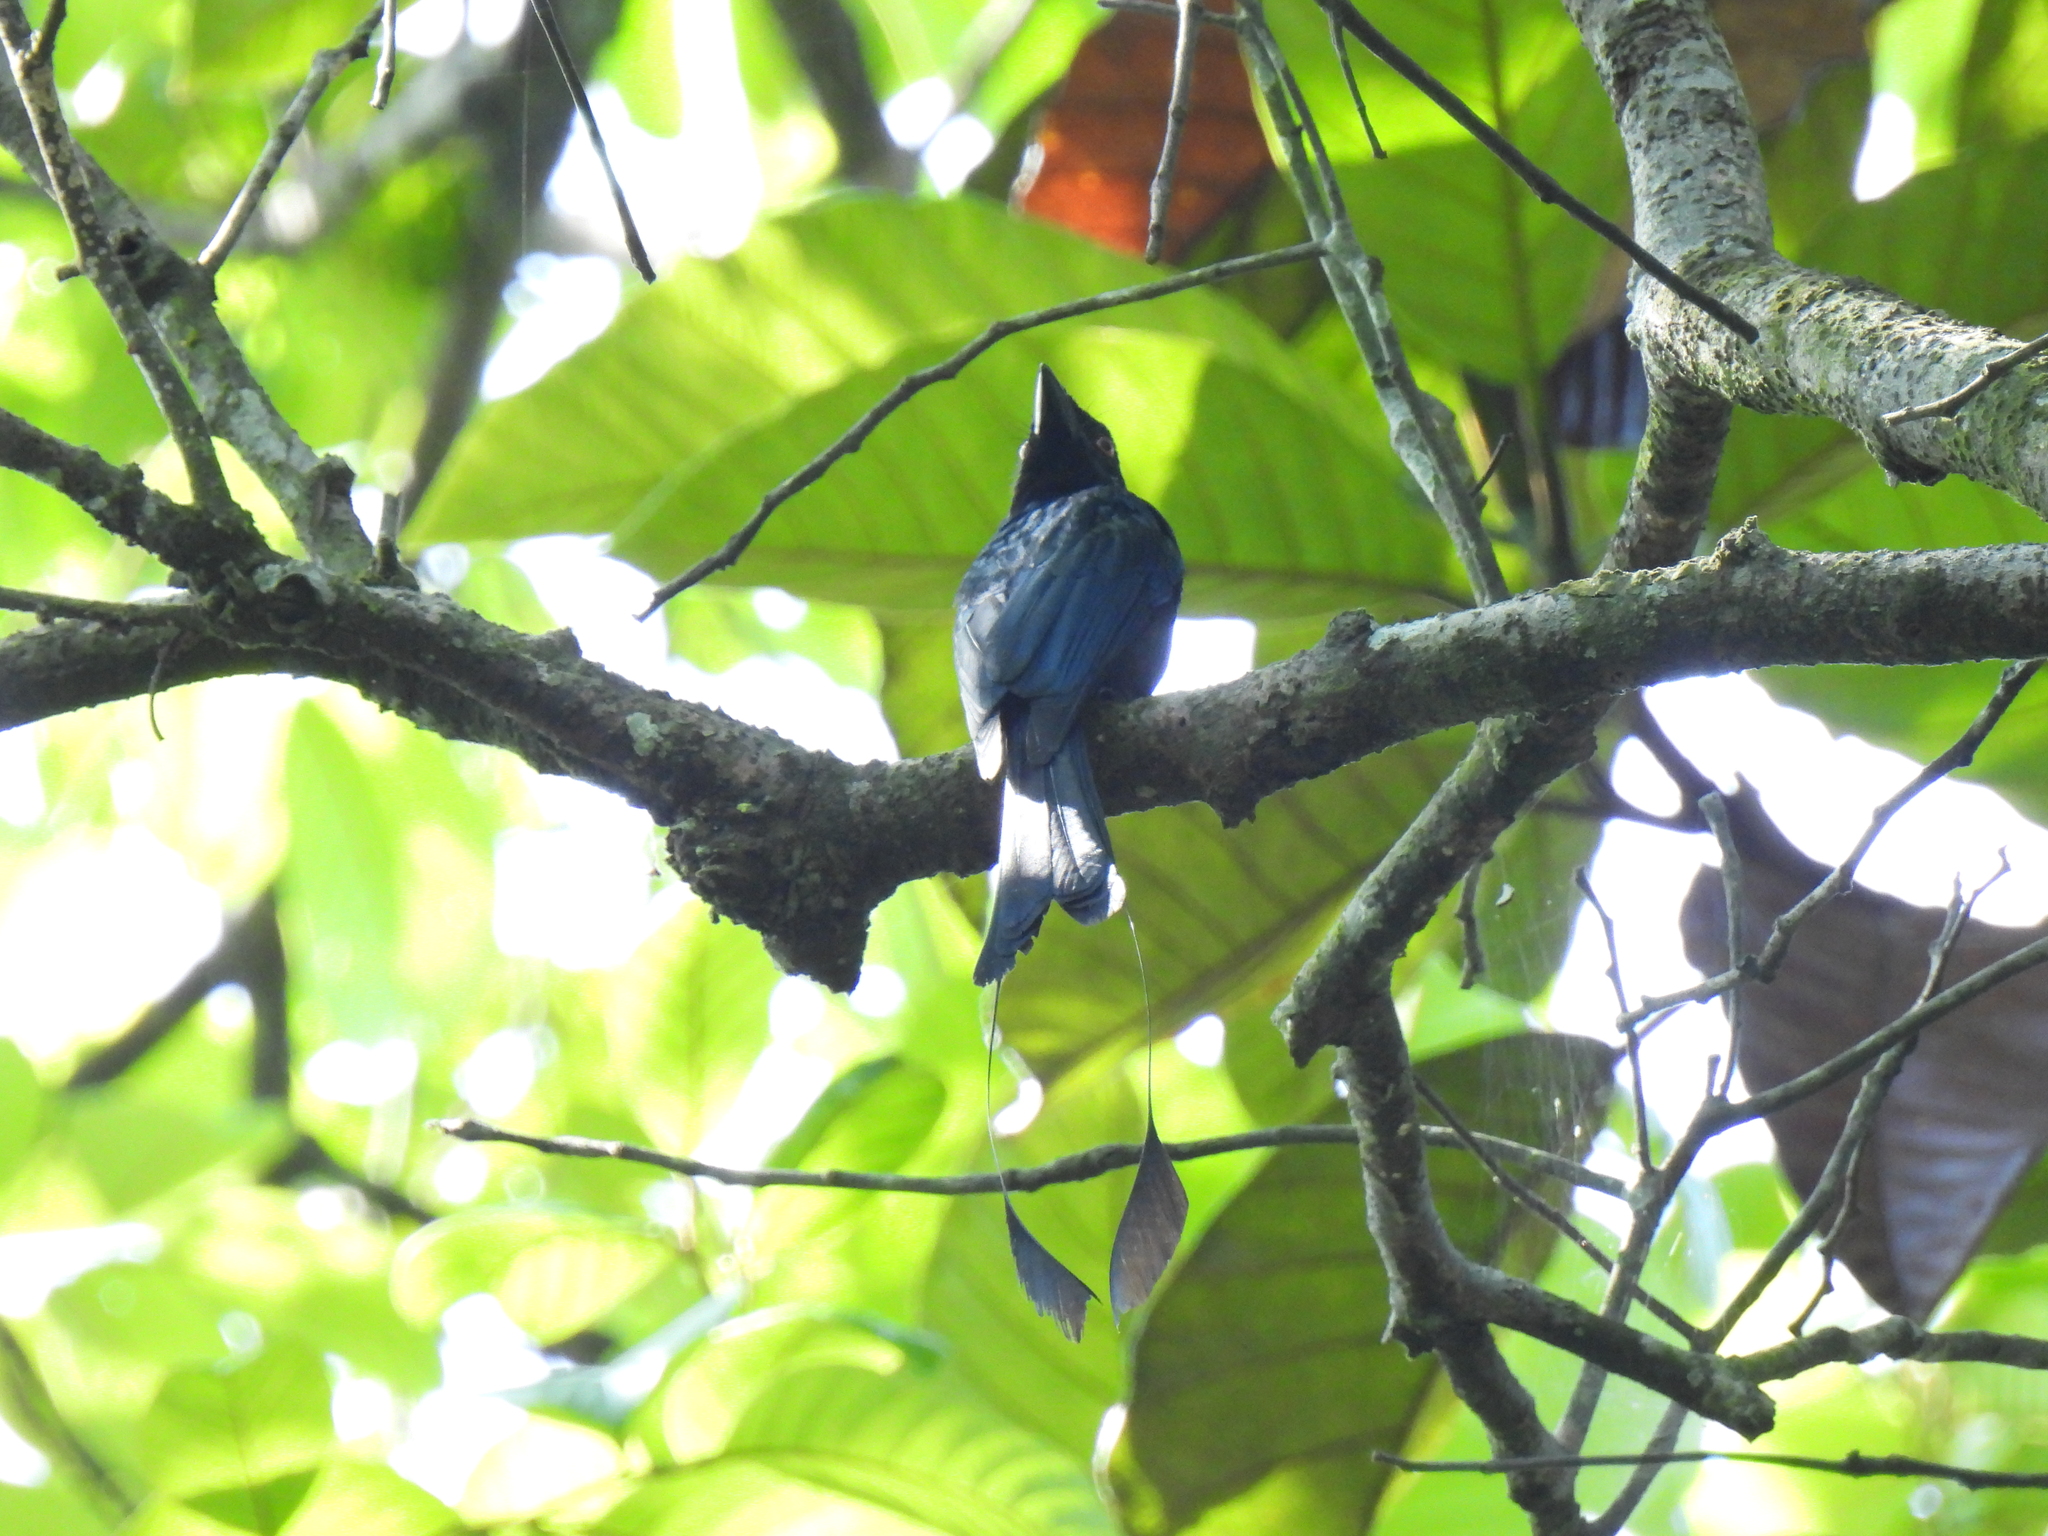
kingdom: Animalia
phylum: Chordata
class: Aves
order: Passeriformes
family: Dicruridae
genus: Dicrurus
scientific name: Dicrurus paradiseus
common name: Greater racket-tailed drongo
